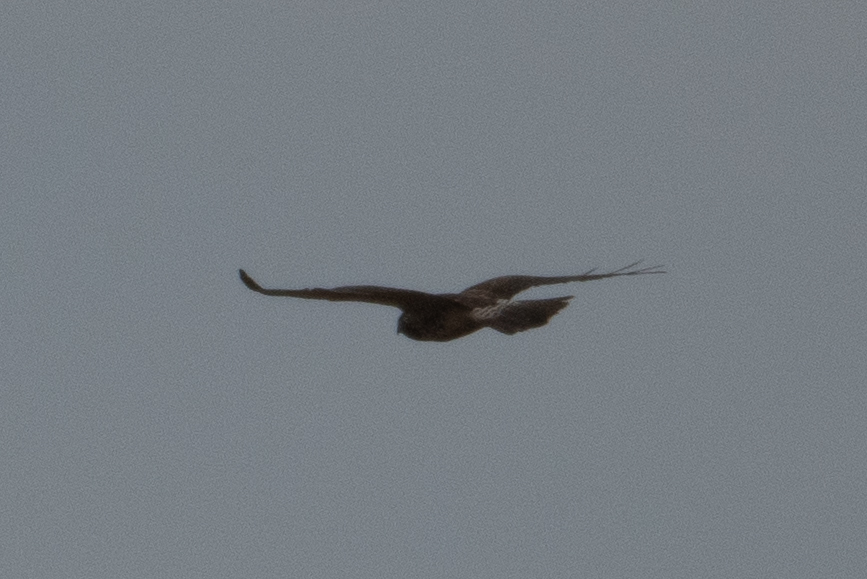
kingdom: Animalia
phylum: Chordata
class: Aves
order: Accipitriformes
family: Accipitridae
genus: Buteo
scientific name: Buteo swainsoni
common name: Swainson's hawk
